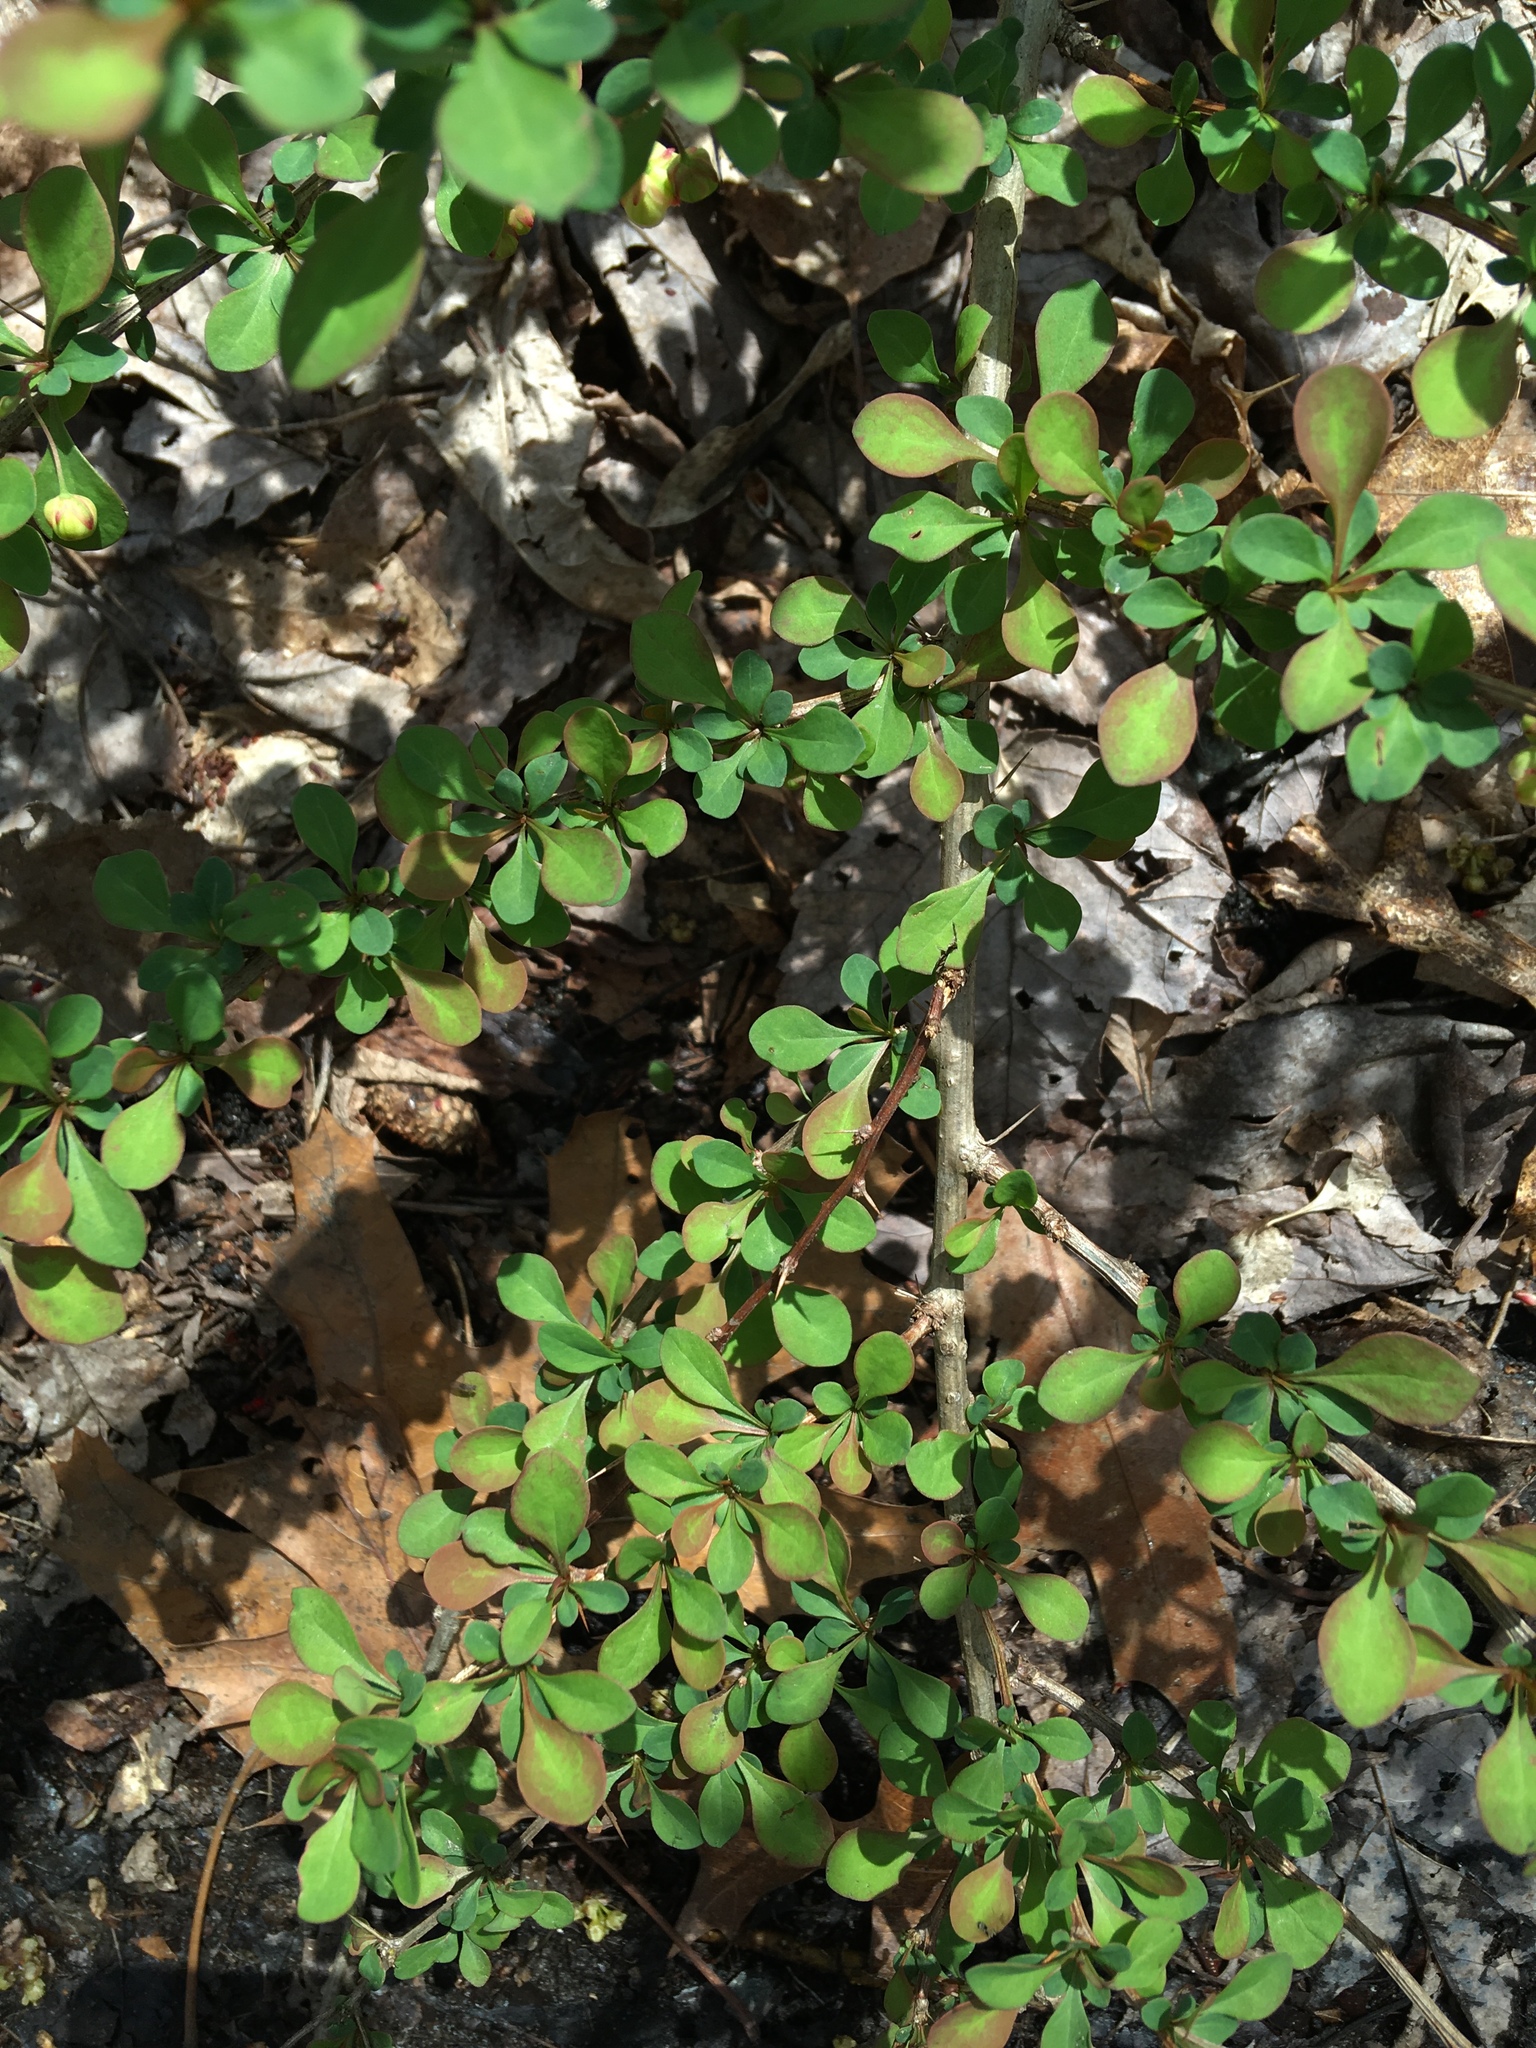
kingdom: Plantae
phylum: Tracheophyta
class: Magnoliopsida
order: Ranunculales
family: Berberidaceae
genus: Berberis
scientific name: Berberis thunbergii
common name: Japanese barberry
